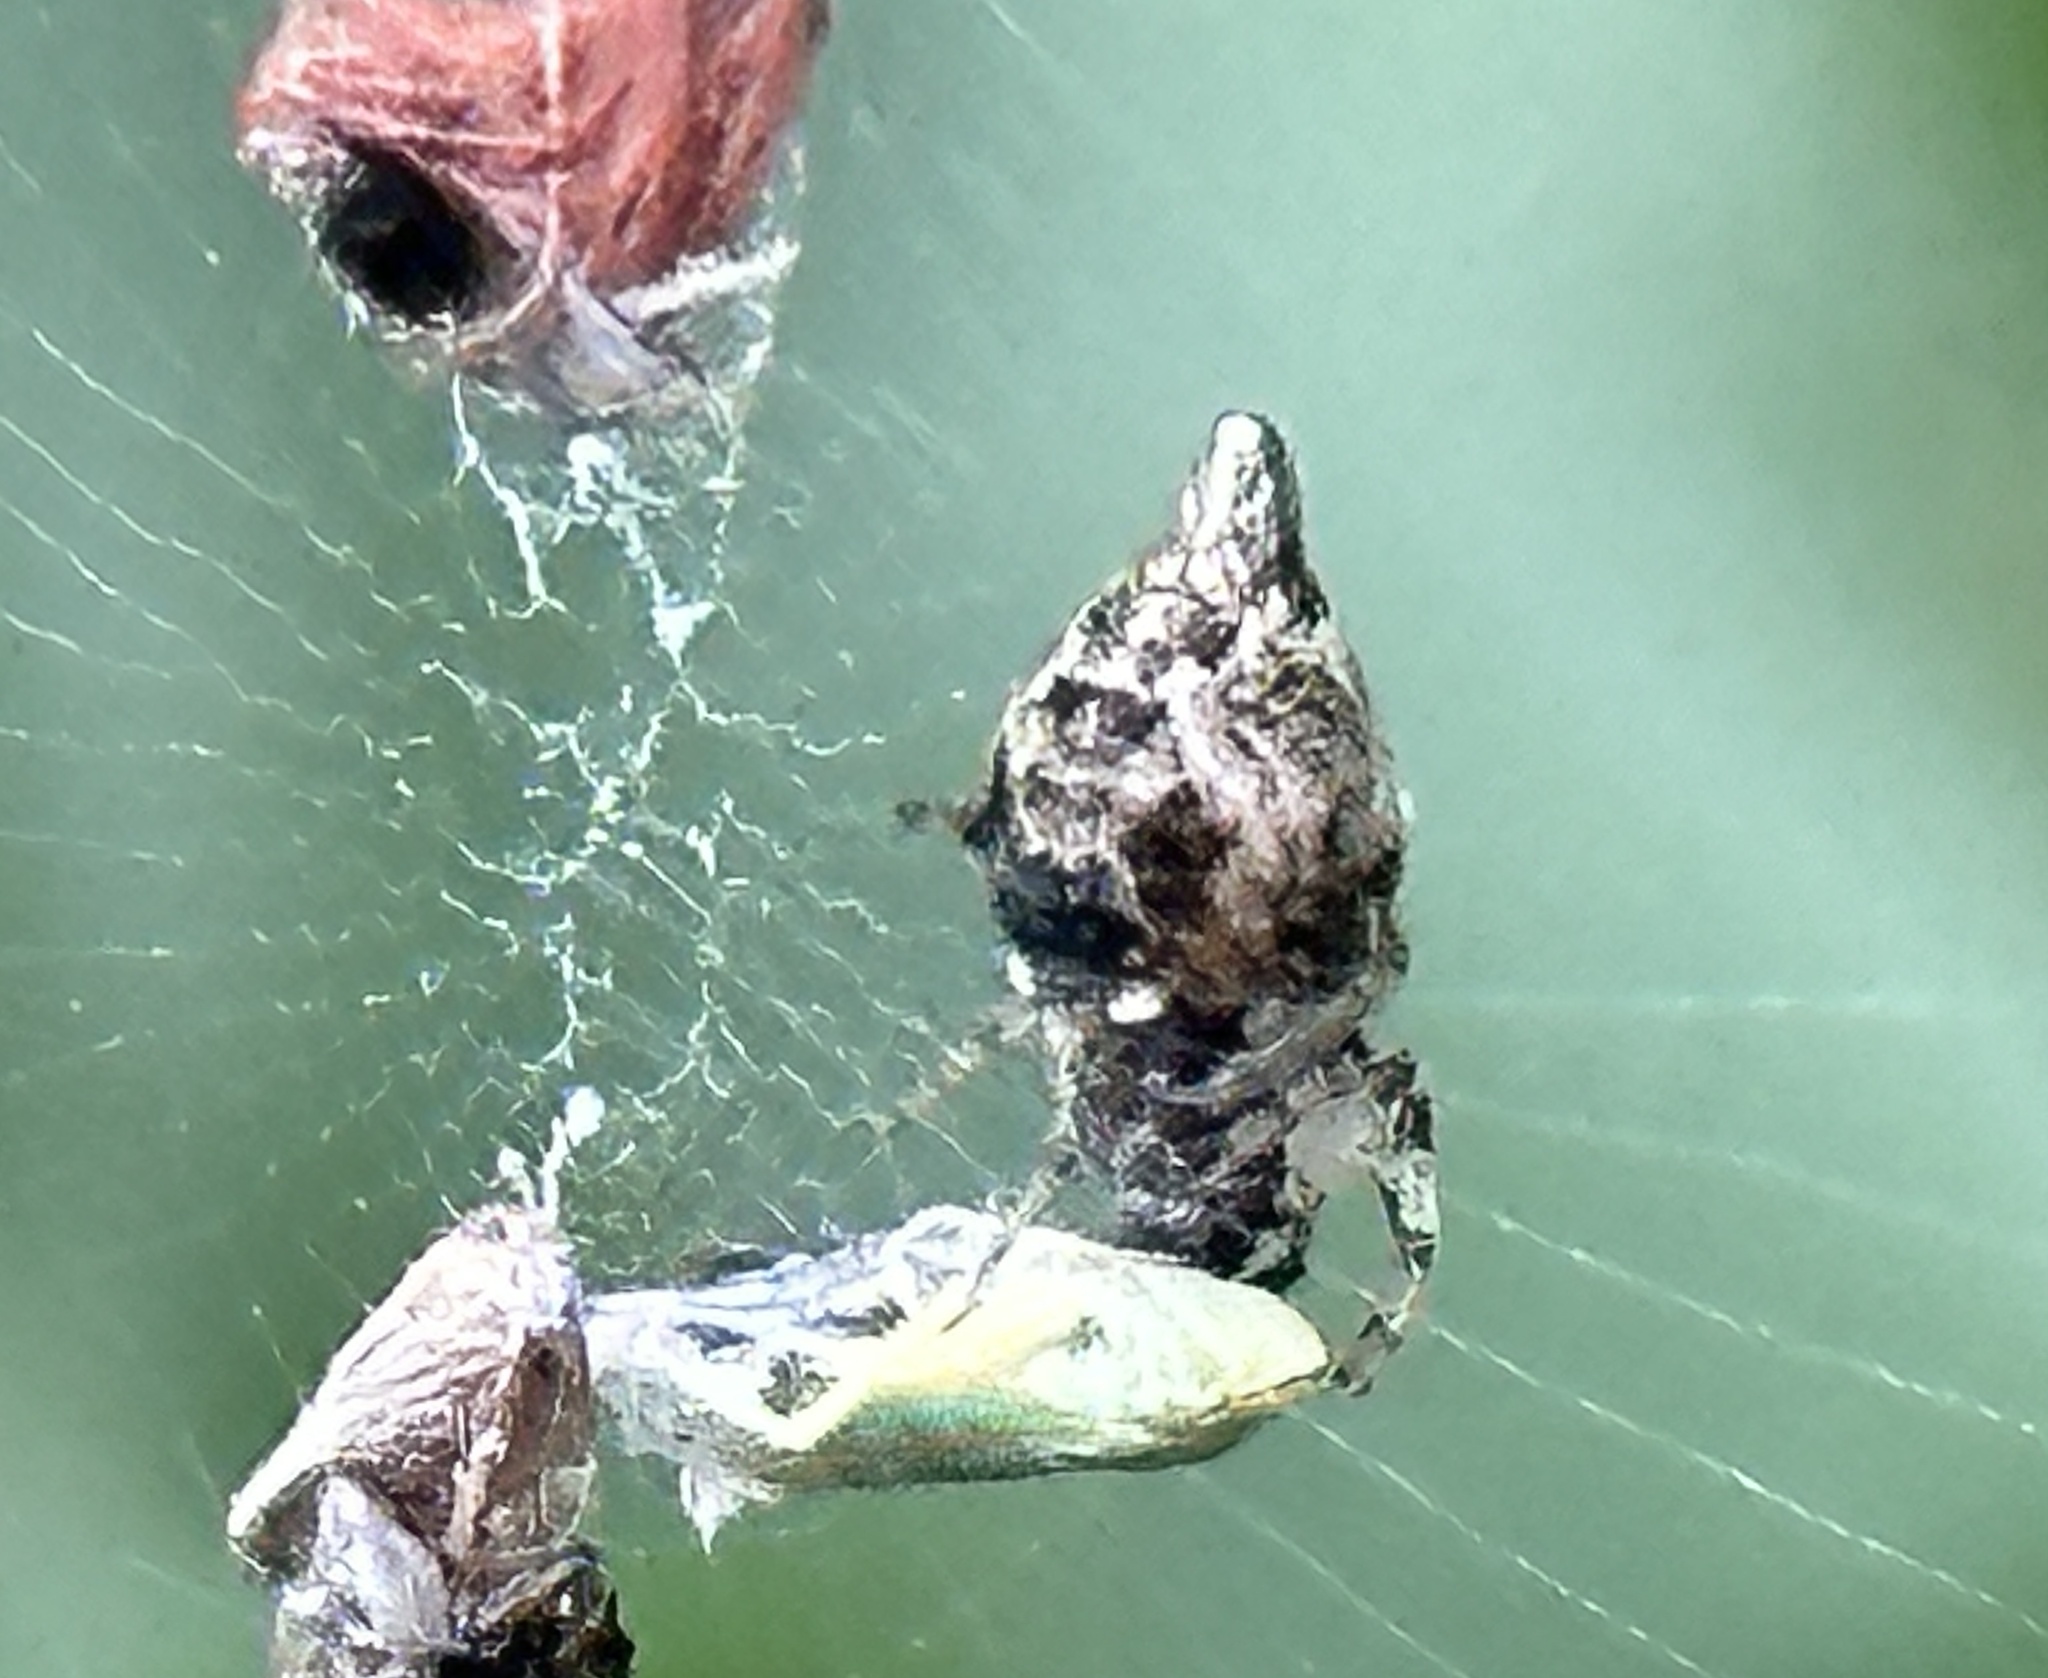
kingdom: Animalia
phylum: Arthropoda
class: Arachnida
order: Araneae
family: Araneidae
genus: Cyclosa
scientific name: Cyclosa turbinata
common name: Orb weavers
